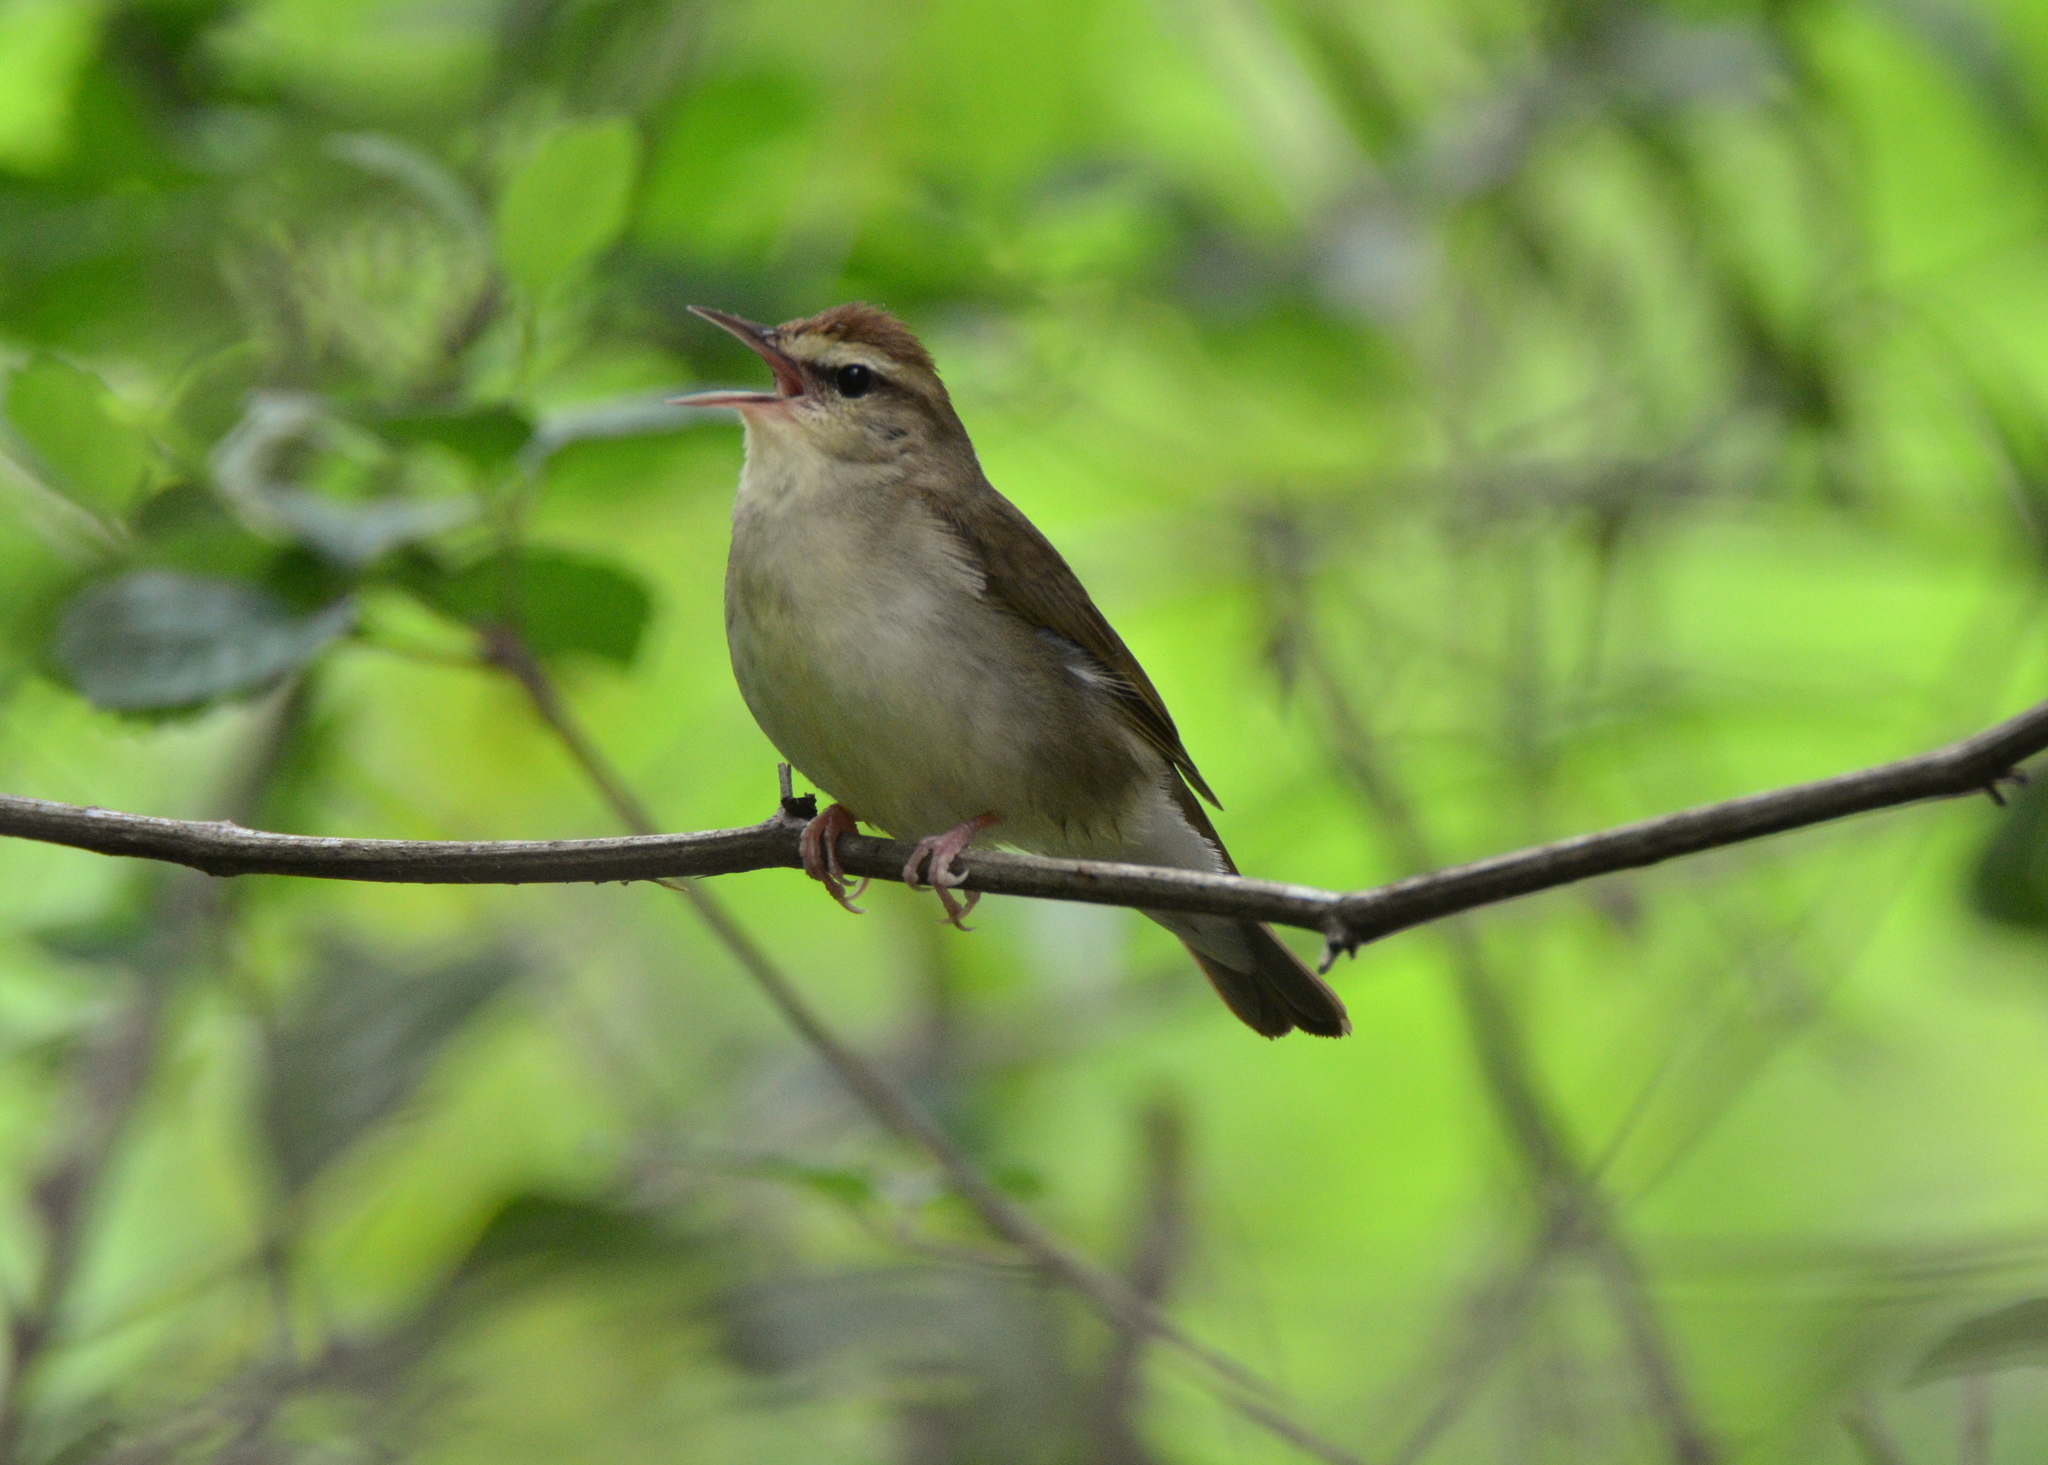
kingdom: Animalia
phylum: Chordata
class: Aves
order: Passeriformes
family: Parulidae
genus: Limnothlypis
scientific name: Limnothlypis swainsonii
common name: Swainson's warbler
